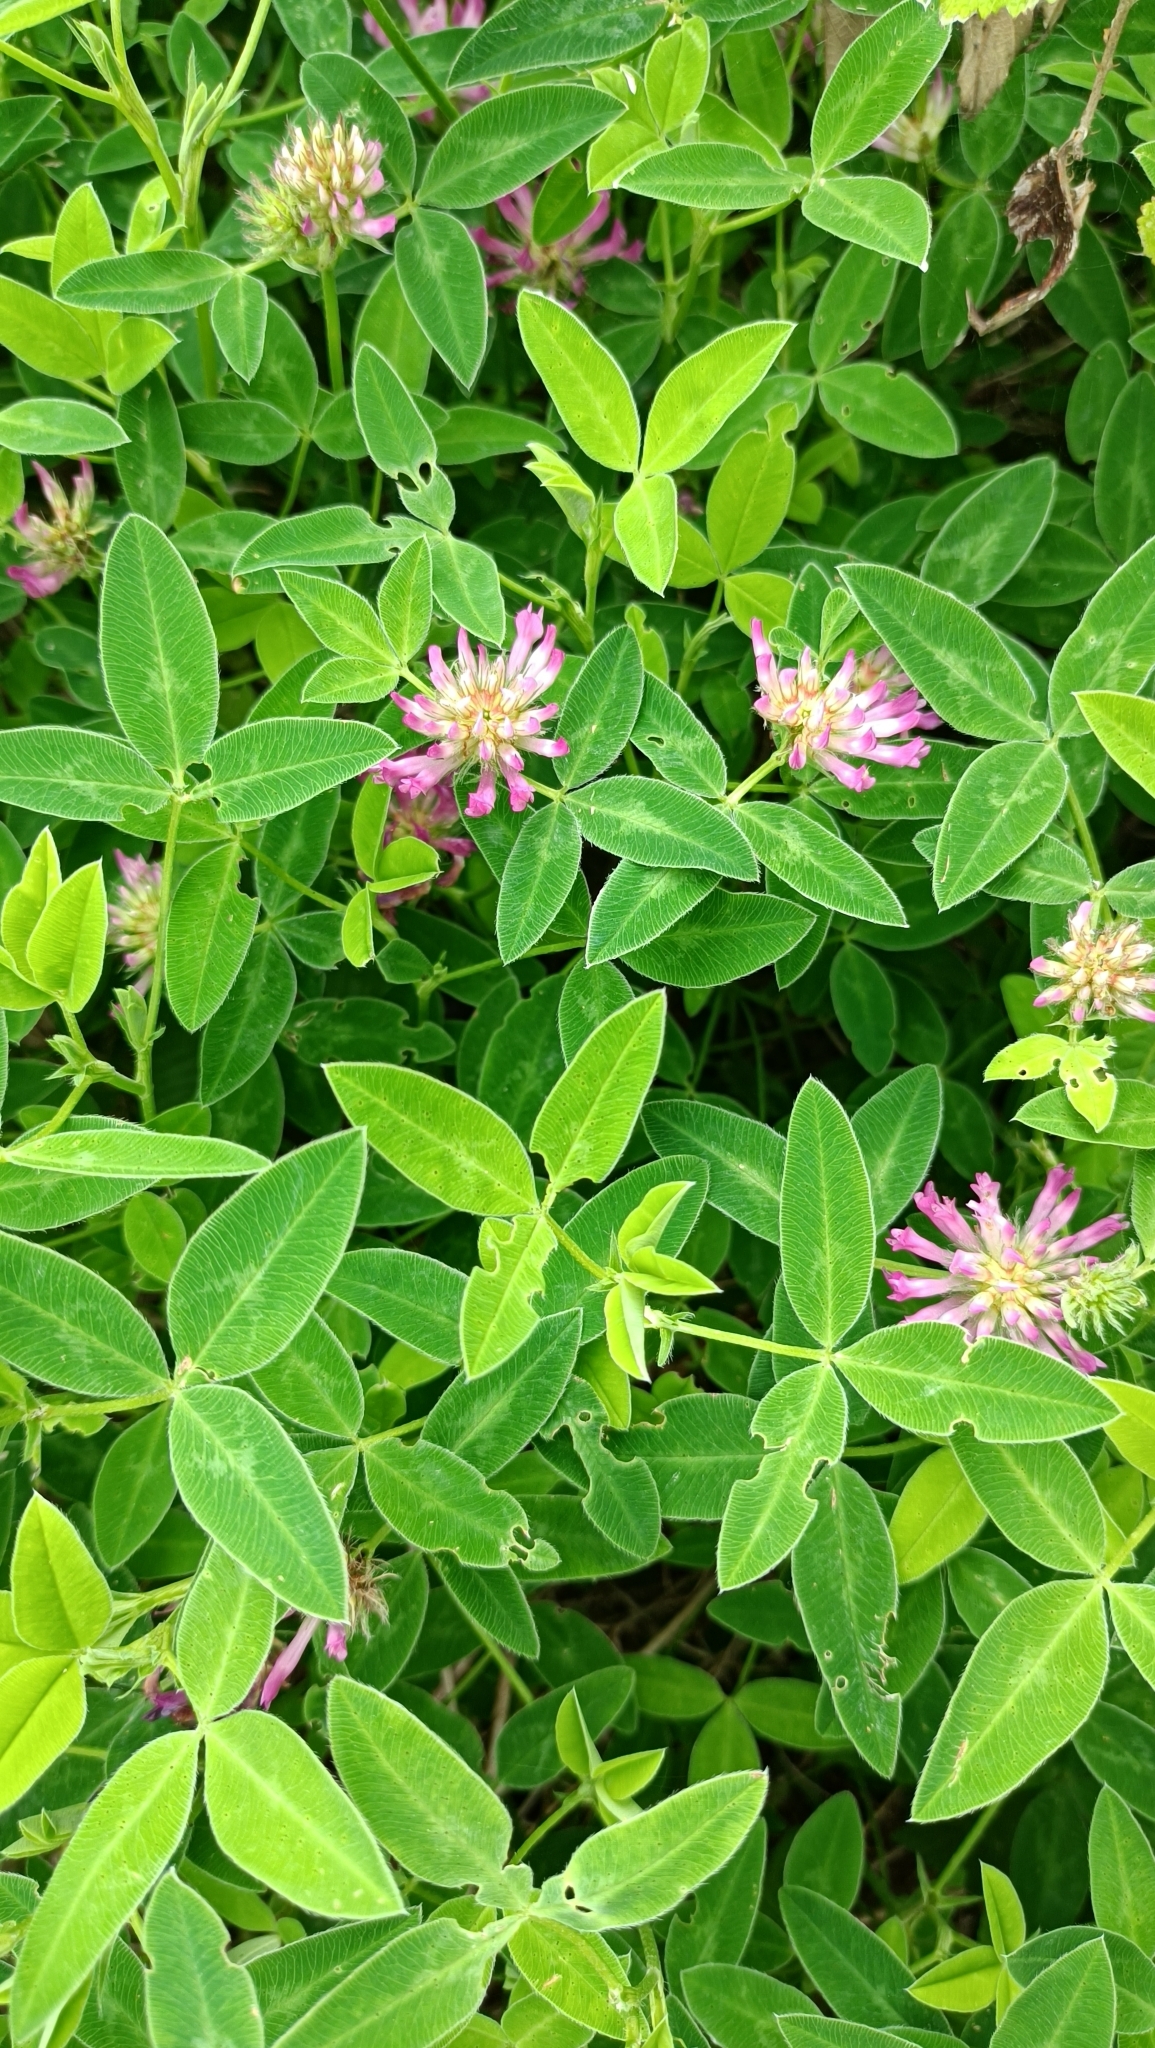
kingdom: Plantae
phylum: Tracheophyta
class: Magnoliopsida
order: Fabales
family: Fabaceae
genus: Trifolium
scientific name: Trifolium medium
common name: Zigzag clover
